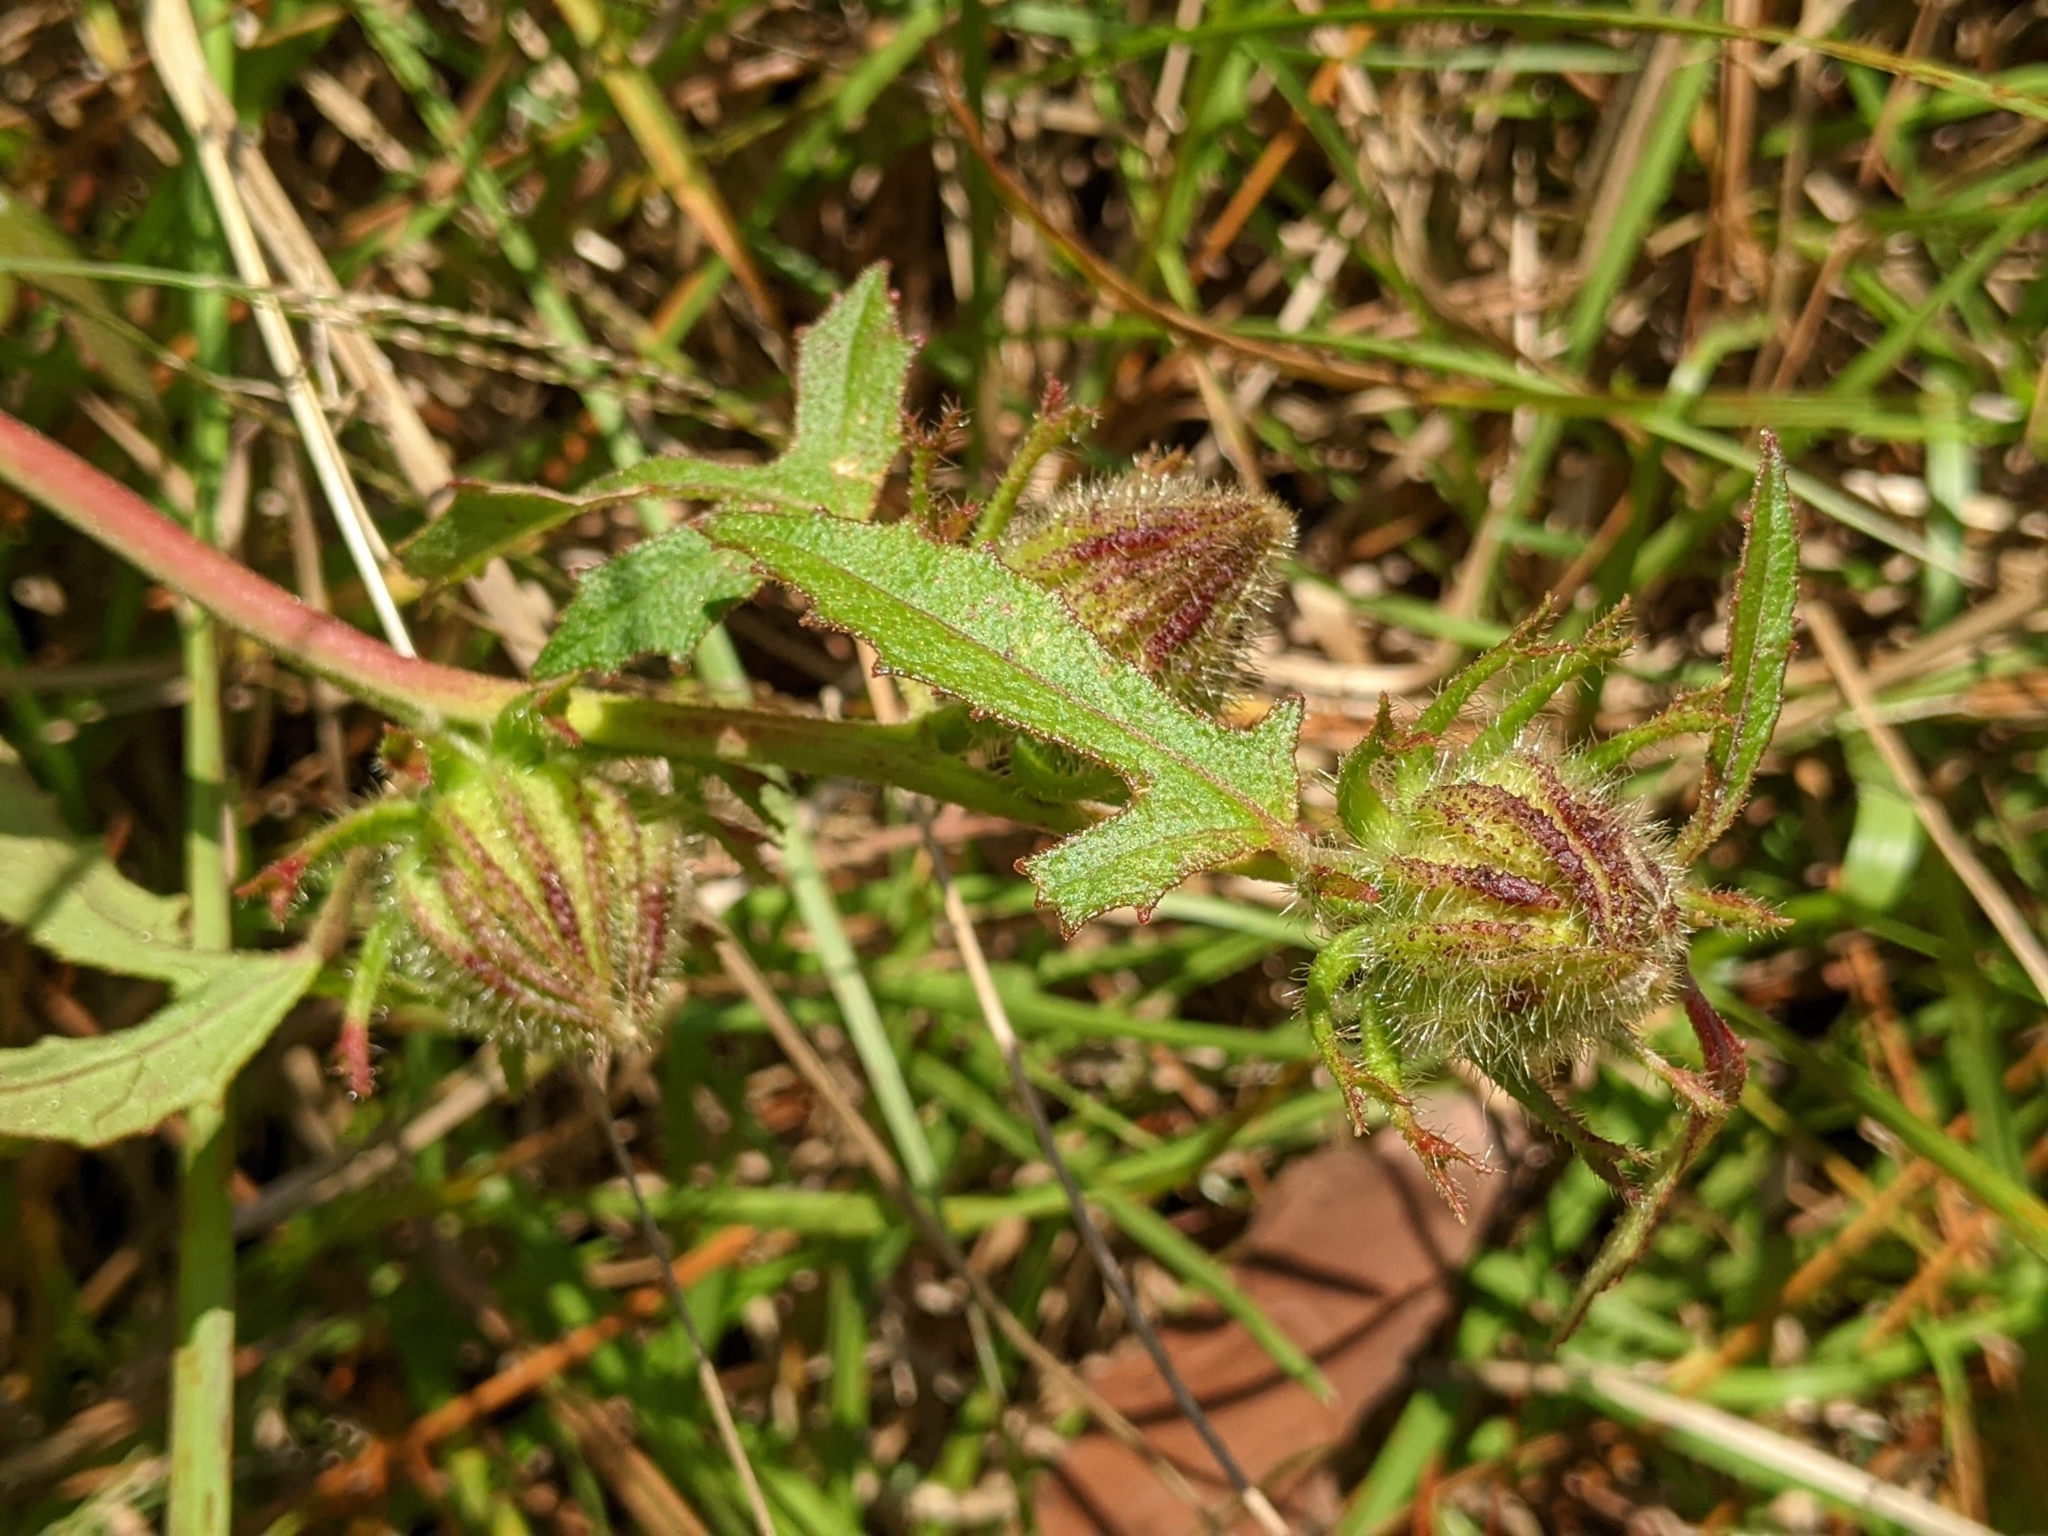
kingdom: Plantae
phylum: Tracheophyta
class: Magnoliopsida
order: Malvales
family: Malvaceae
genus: Hibiscus
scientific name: Hibiscus aculeatus
